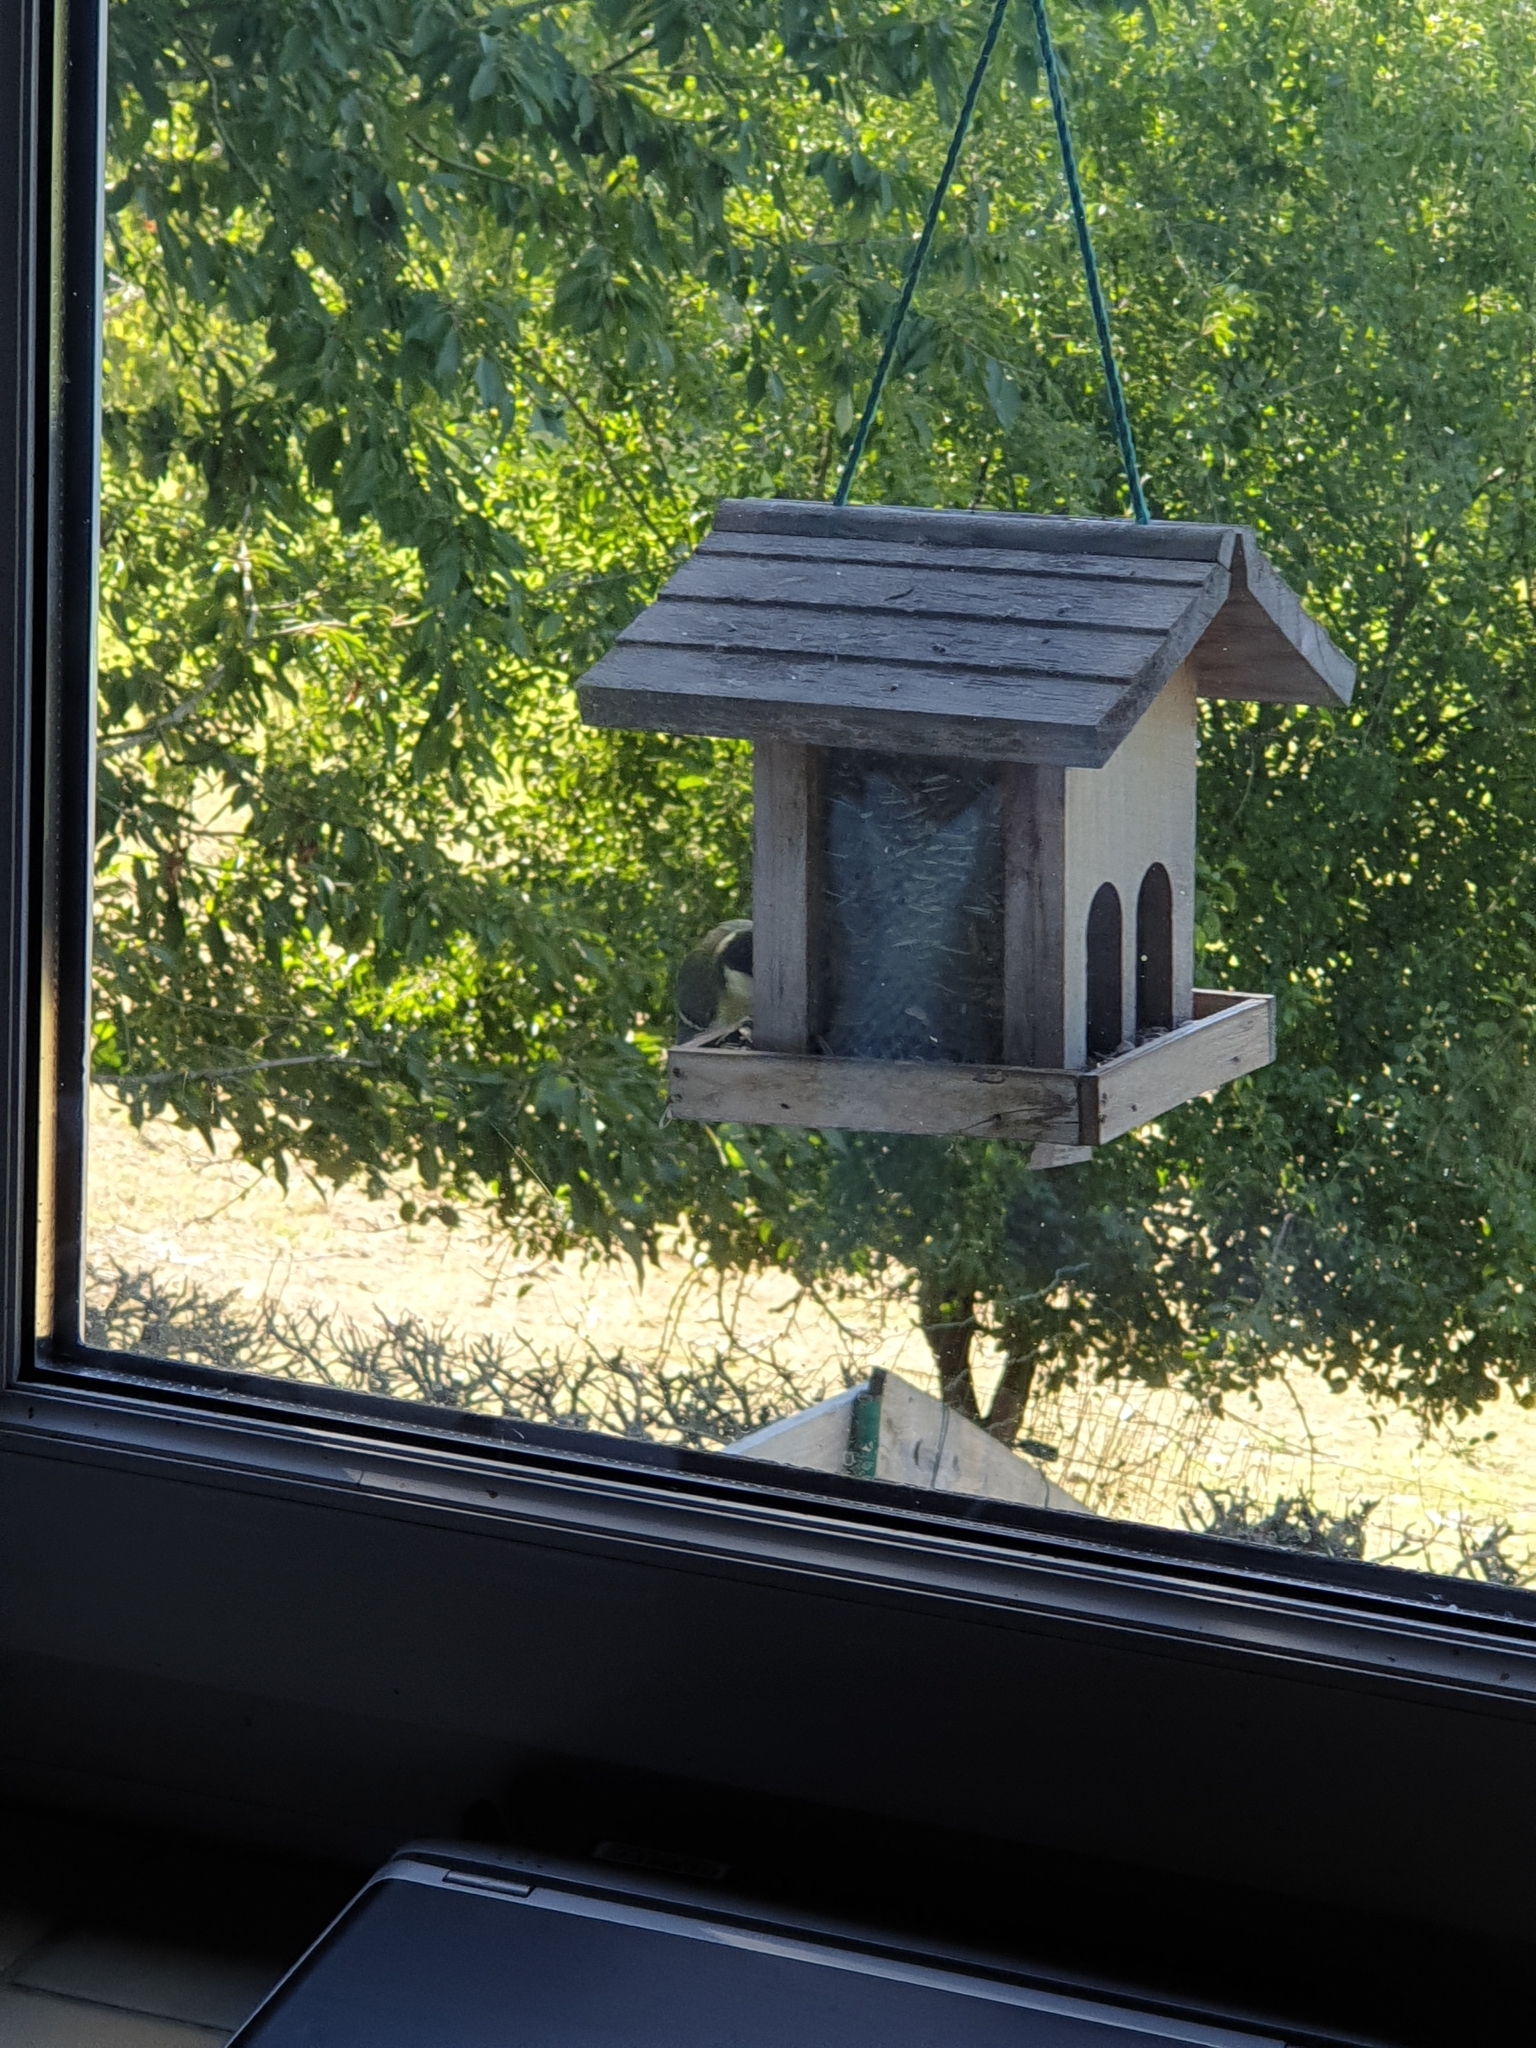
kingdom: Animalia
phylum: Chordata
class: Aves
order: Passeriformes
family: Paridae
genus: Parus
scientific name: Parus major
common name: Great tit
